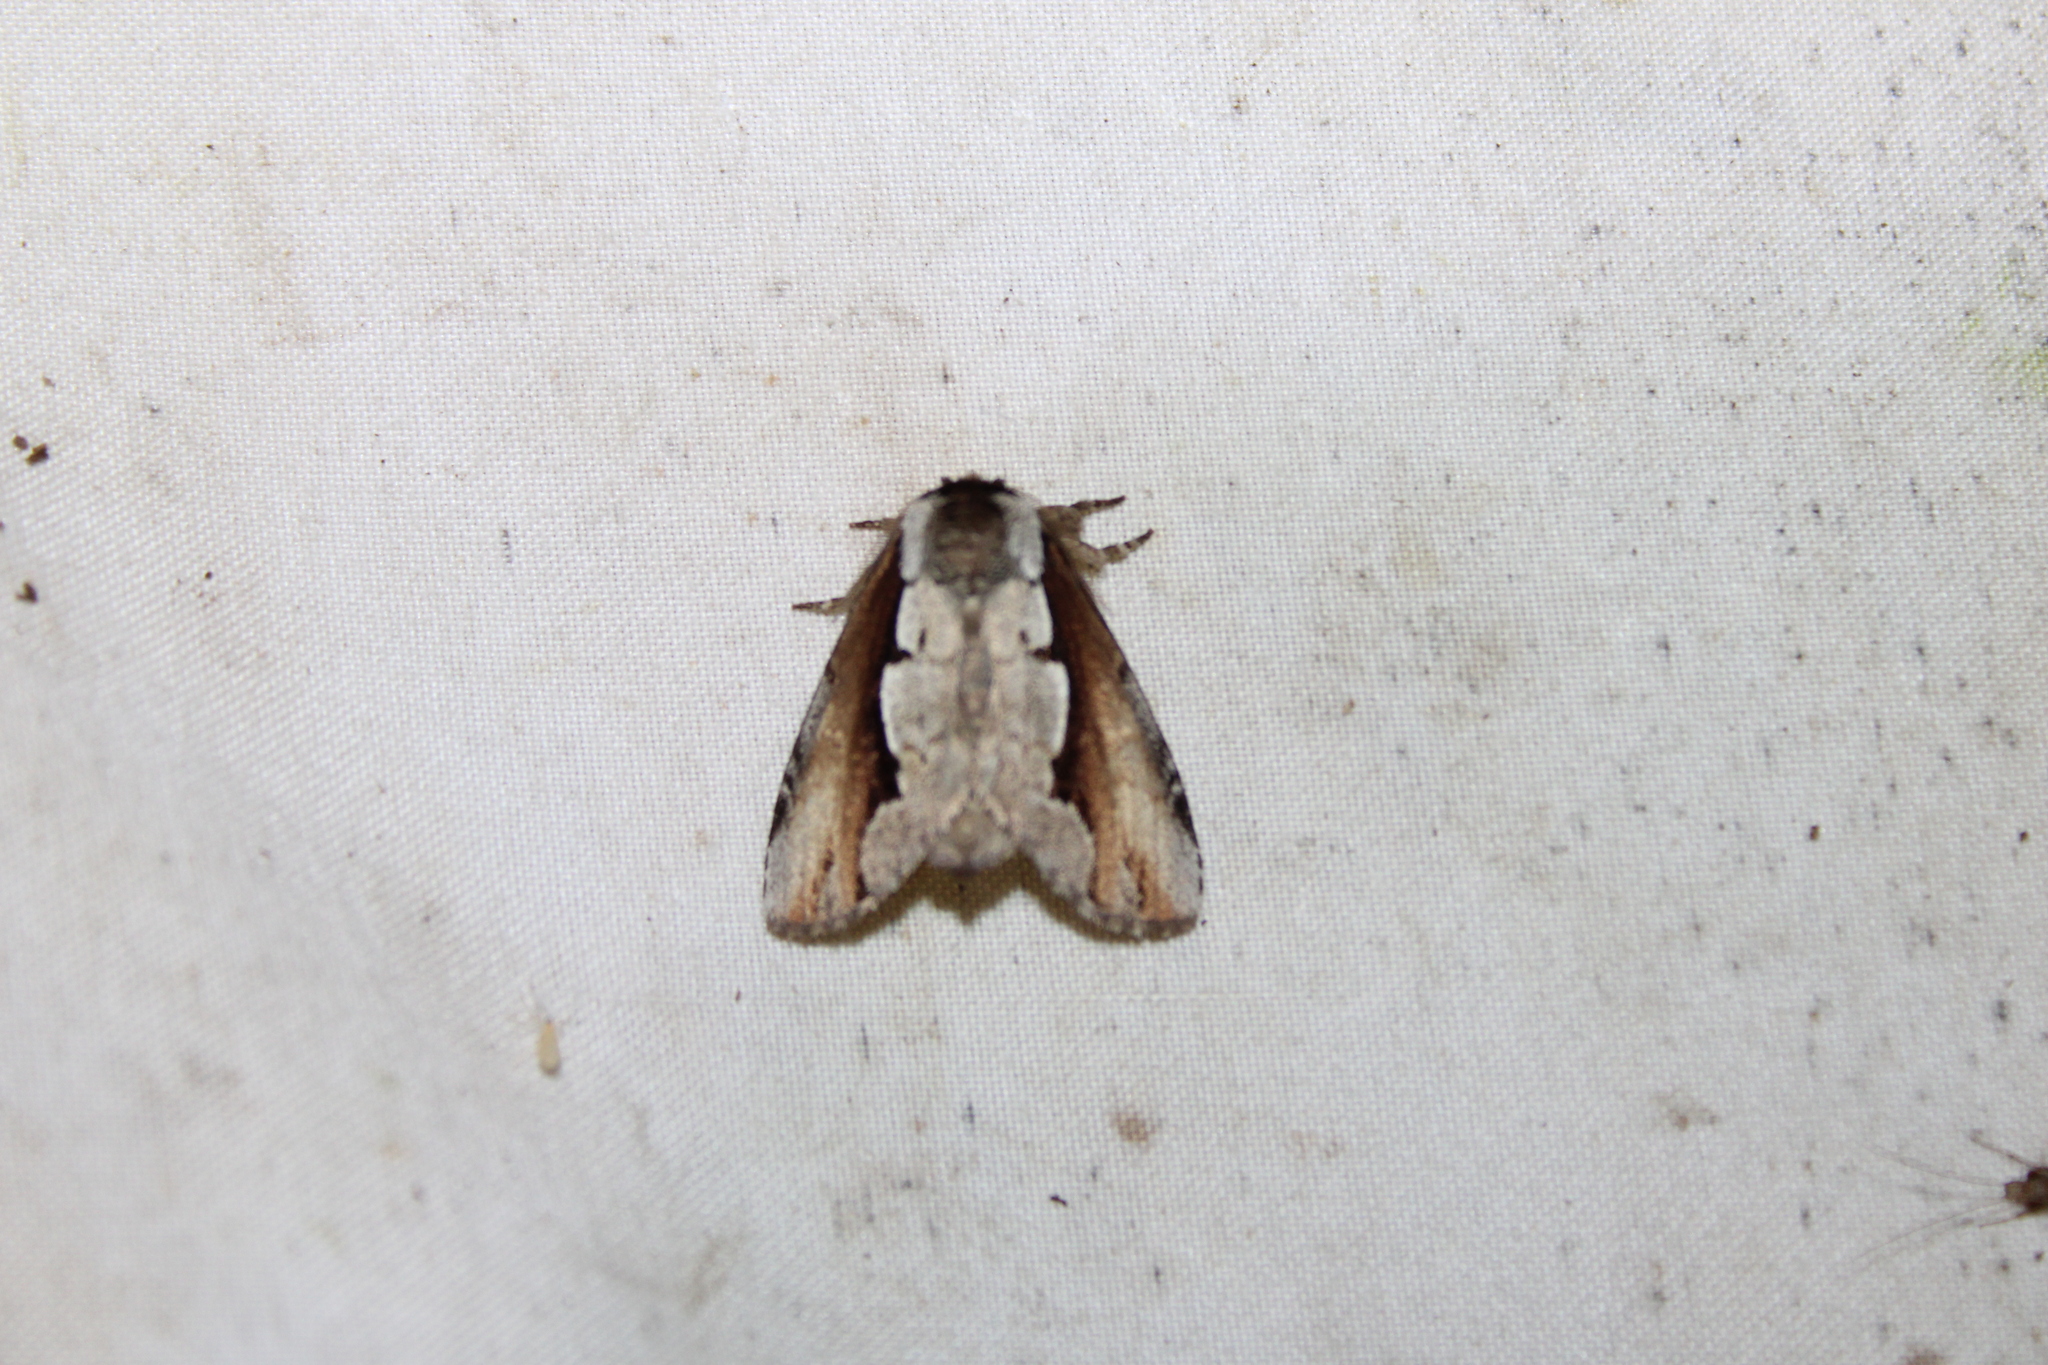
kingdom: Animalia
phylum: Arthropoda
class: Insecta
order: Lepidoptera
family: Notodontidae
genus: Nerice
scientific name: Nerice bidentata
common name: Double-toothed prominent
